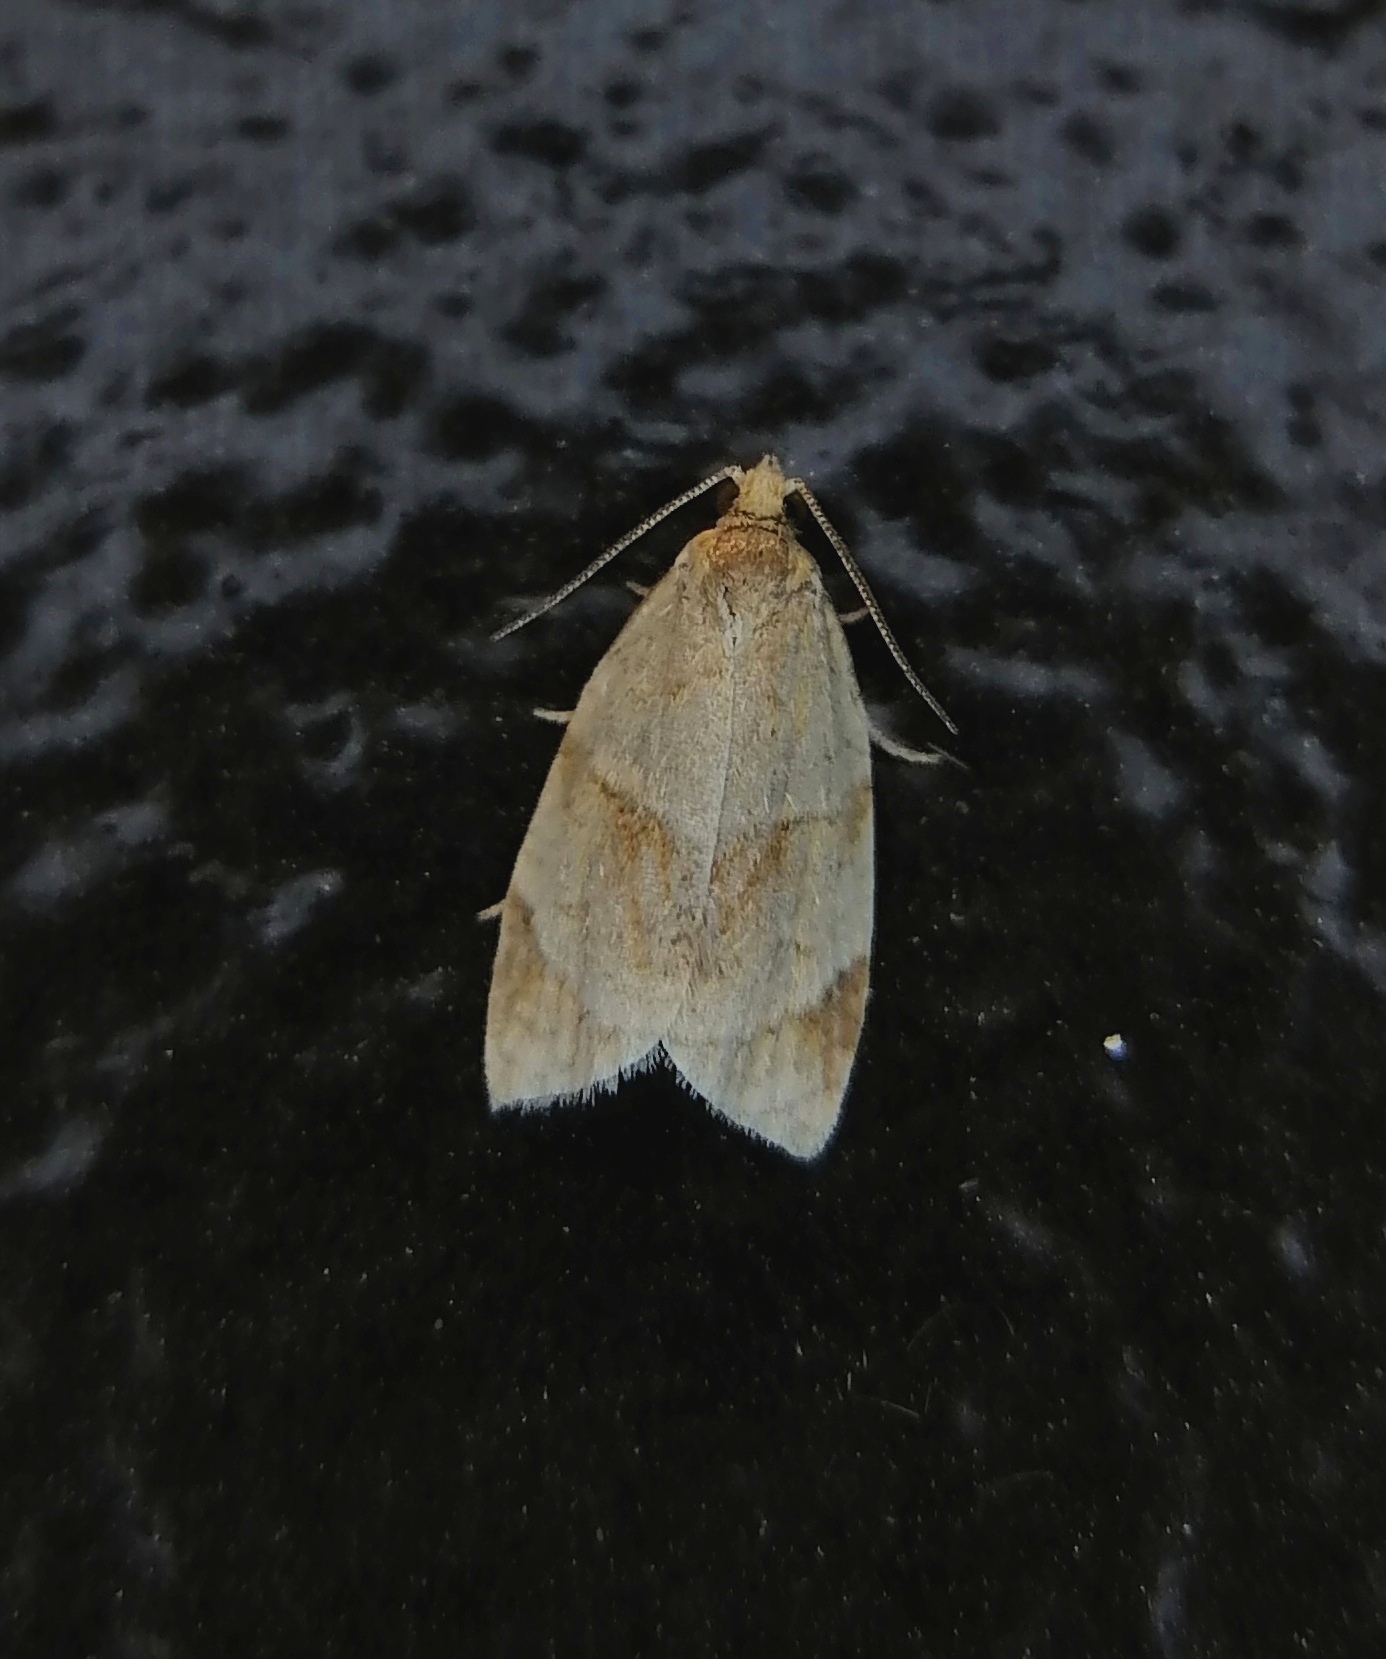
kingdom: Animalia
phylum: Arthropoda
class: Insecta
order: Lepidoptera
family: Tortricidae
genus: Clepsis
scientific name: Clepsis rurinana
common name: Pale twist
